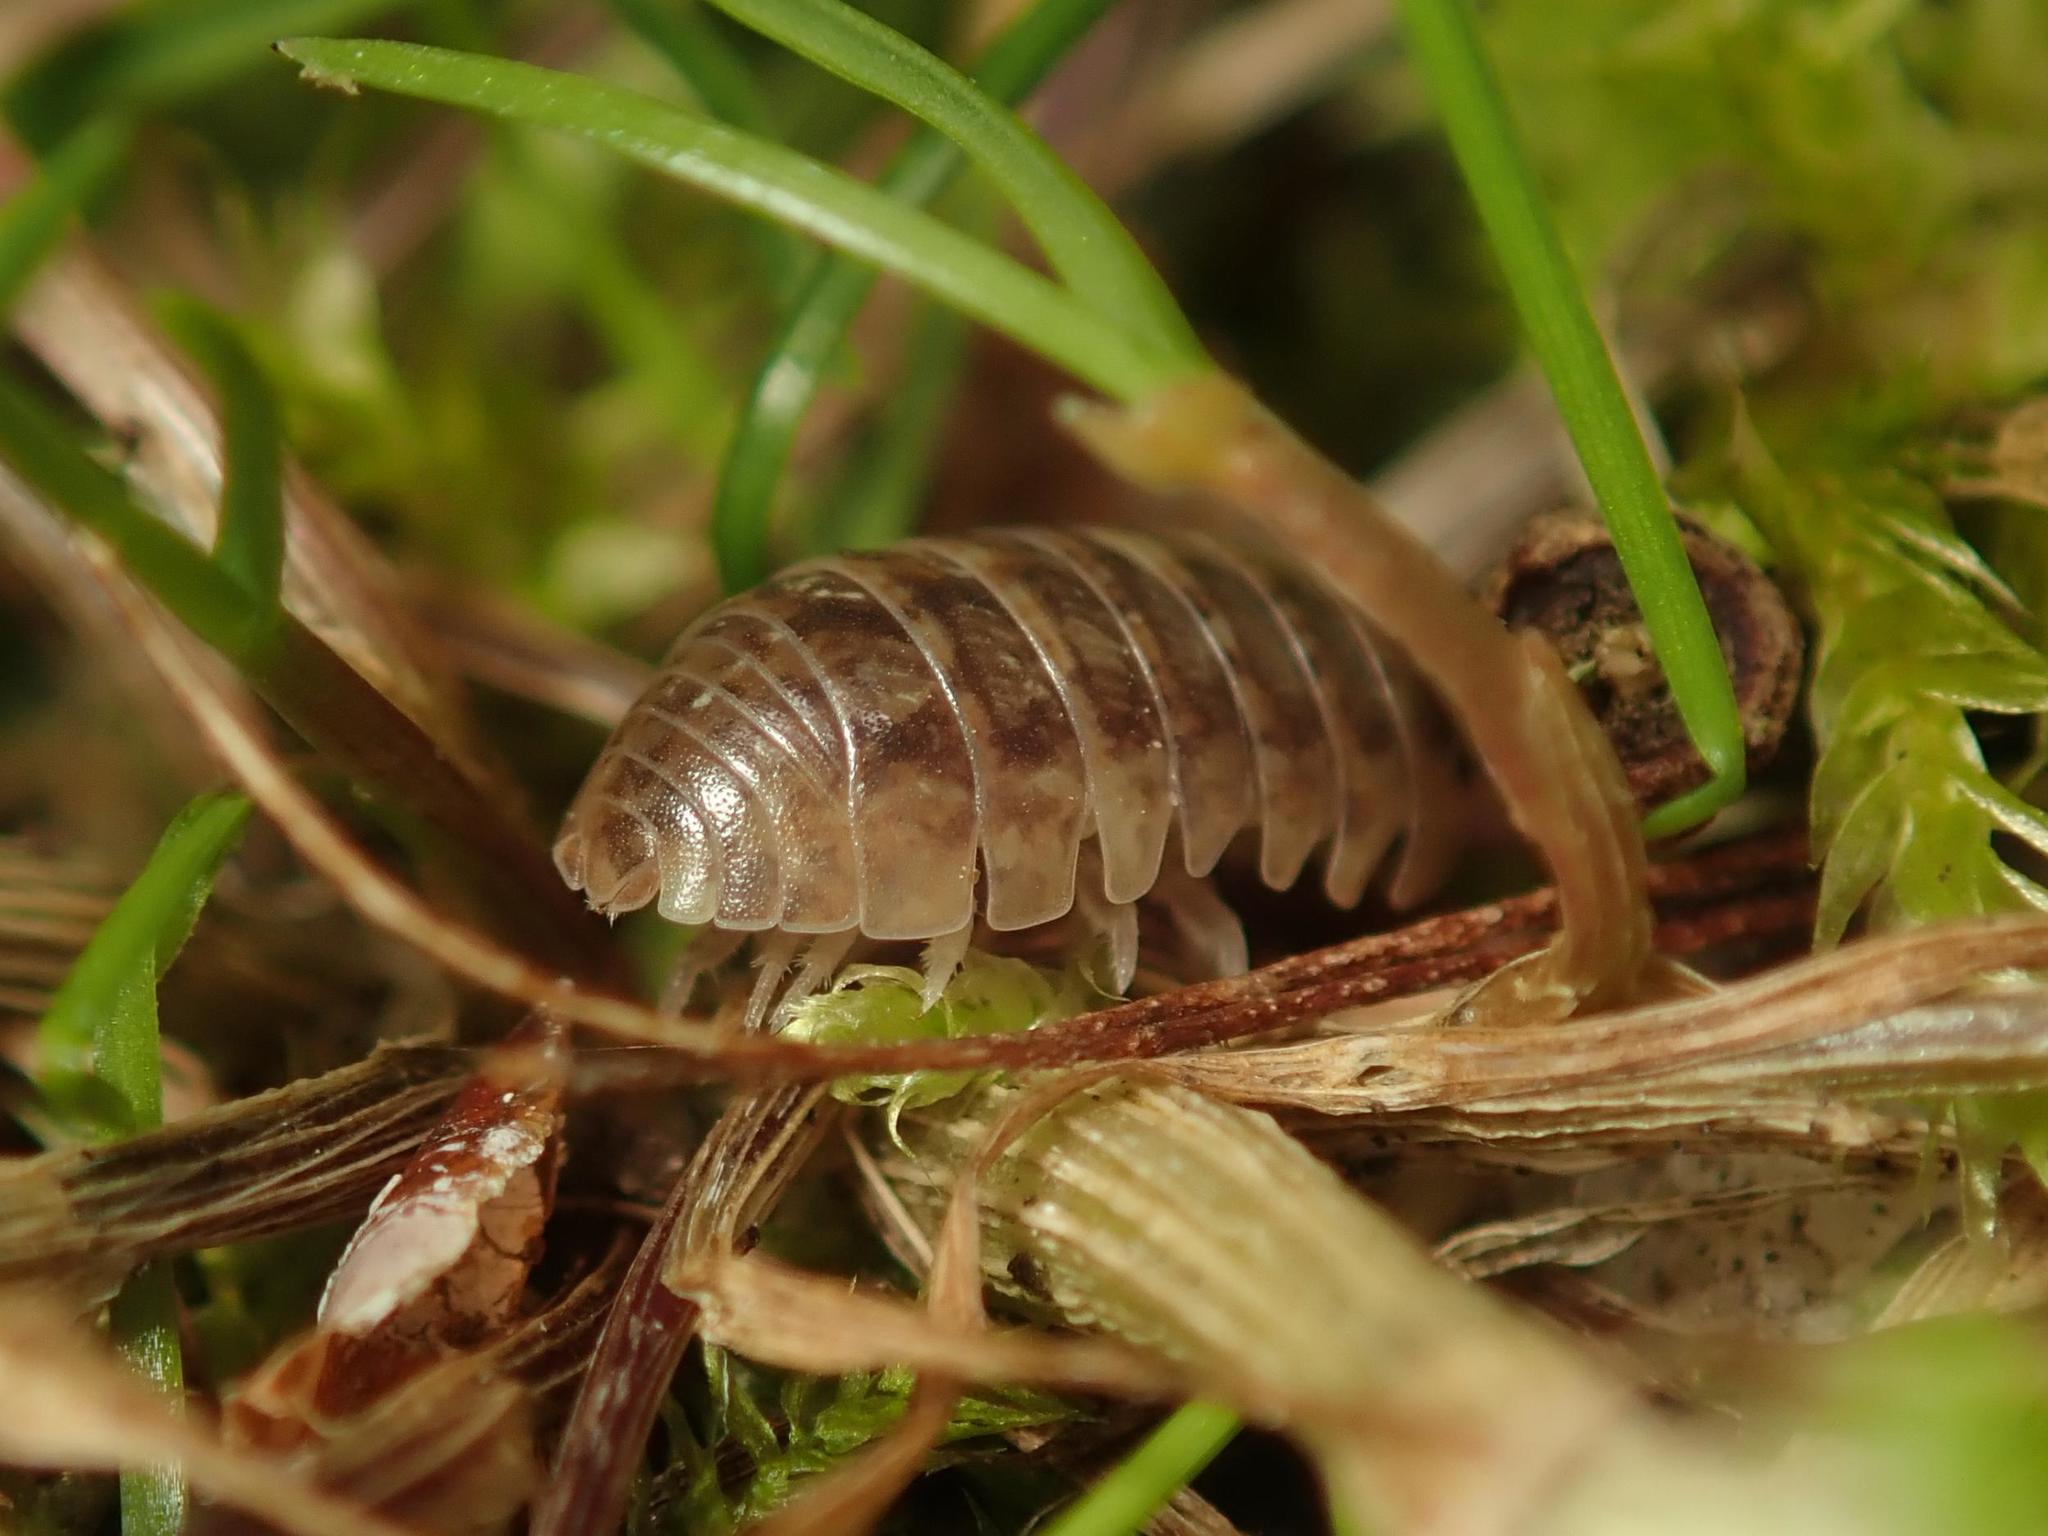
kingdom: Animalia
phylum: Arthropoda
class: Malacostraca
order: Isopoda
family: Armadillidiidae
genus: Armadillidium
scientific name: Armadillidium vulgare
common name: Common pill woodlouse
